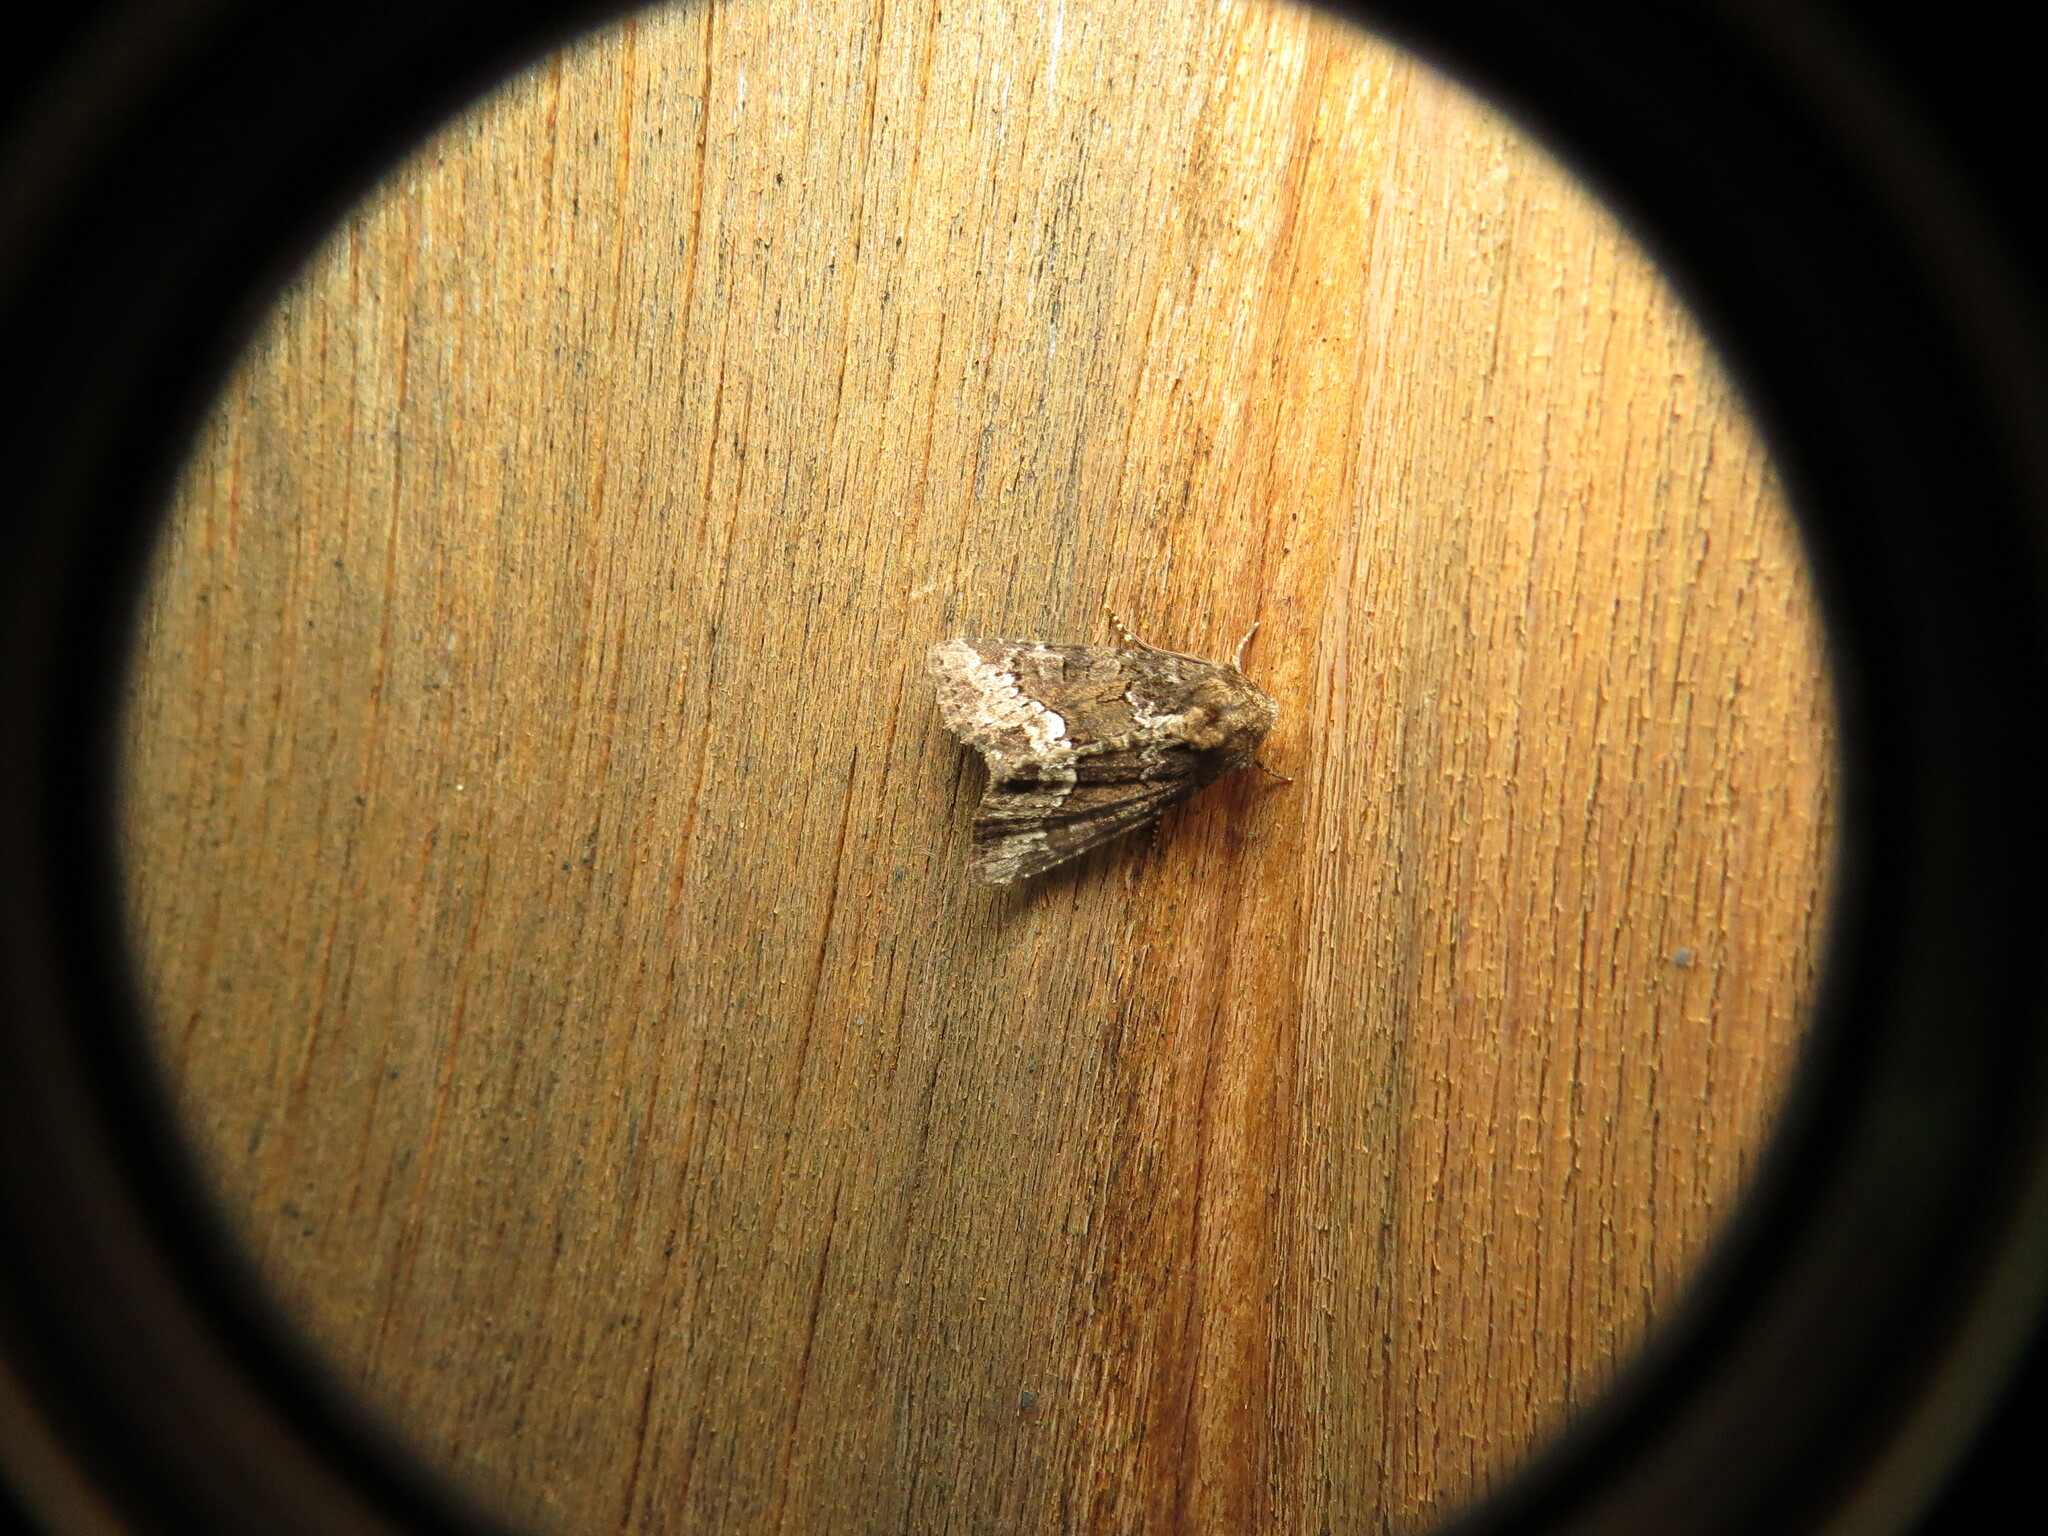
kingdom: Animalia
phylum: Arthropoda
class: Insecta
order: Lepidoptera
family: Noctuidae
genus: Oligia
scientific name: Oligia strigilis
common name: Marbled minor
